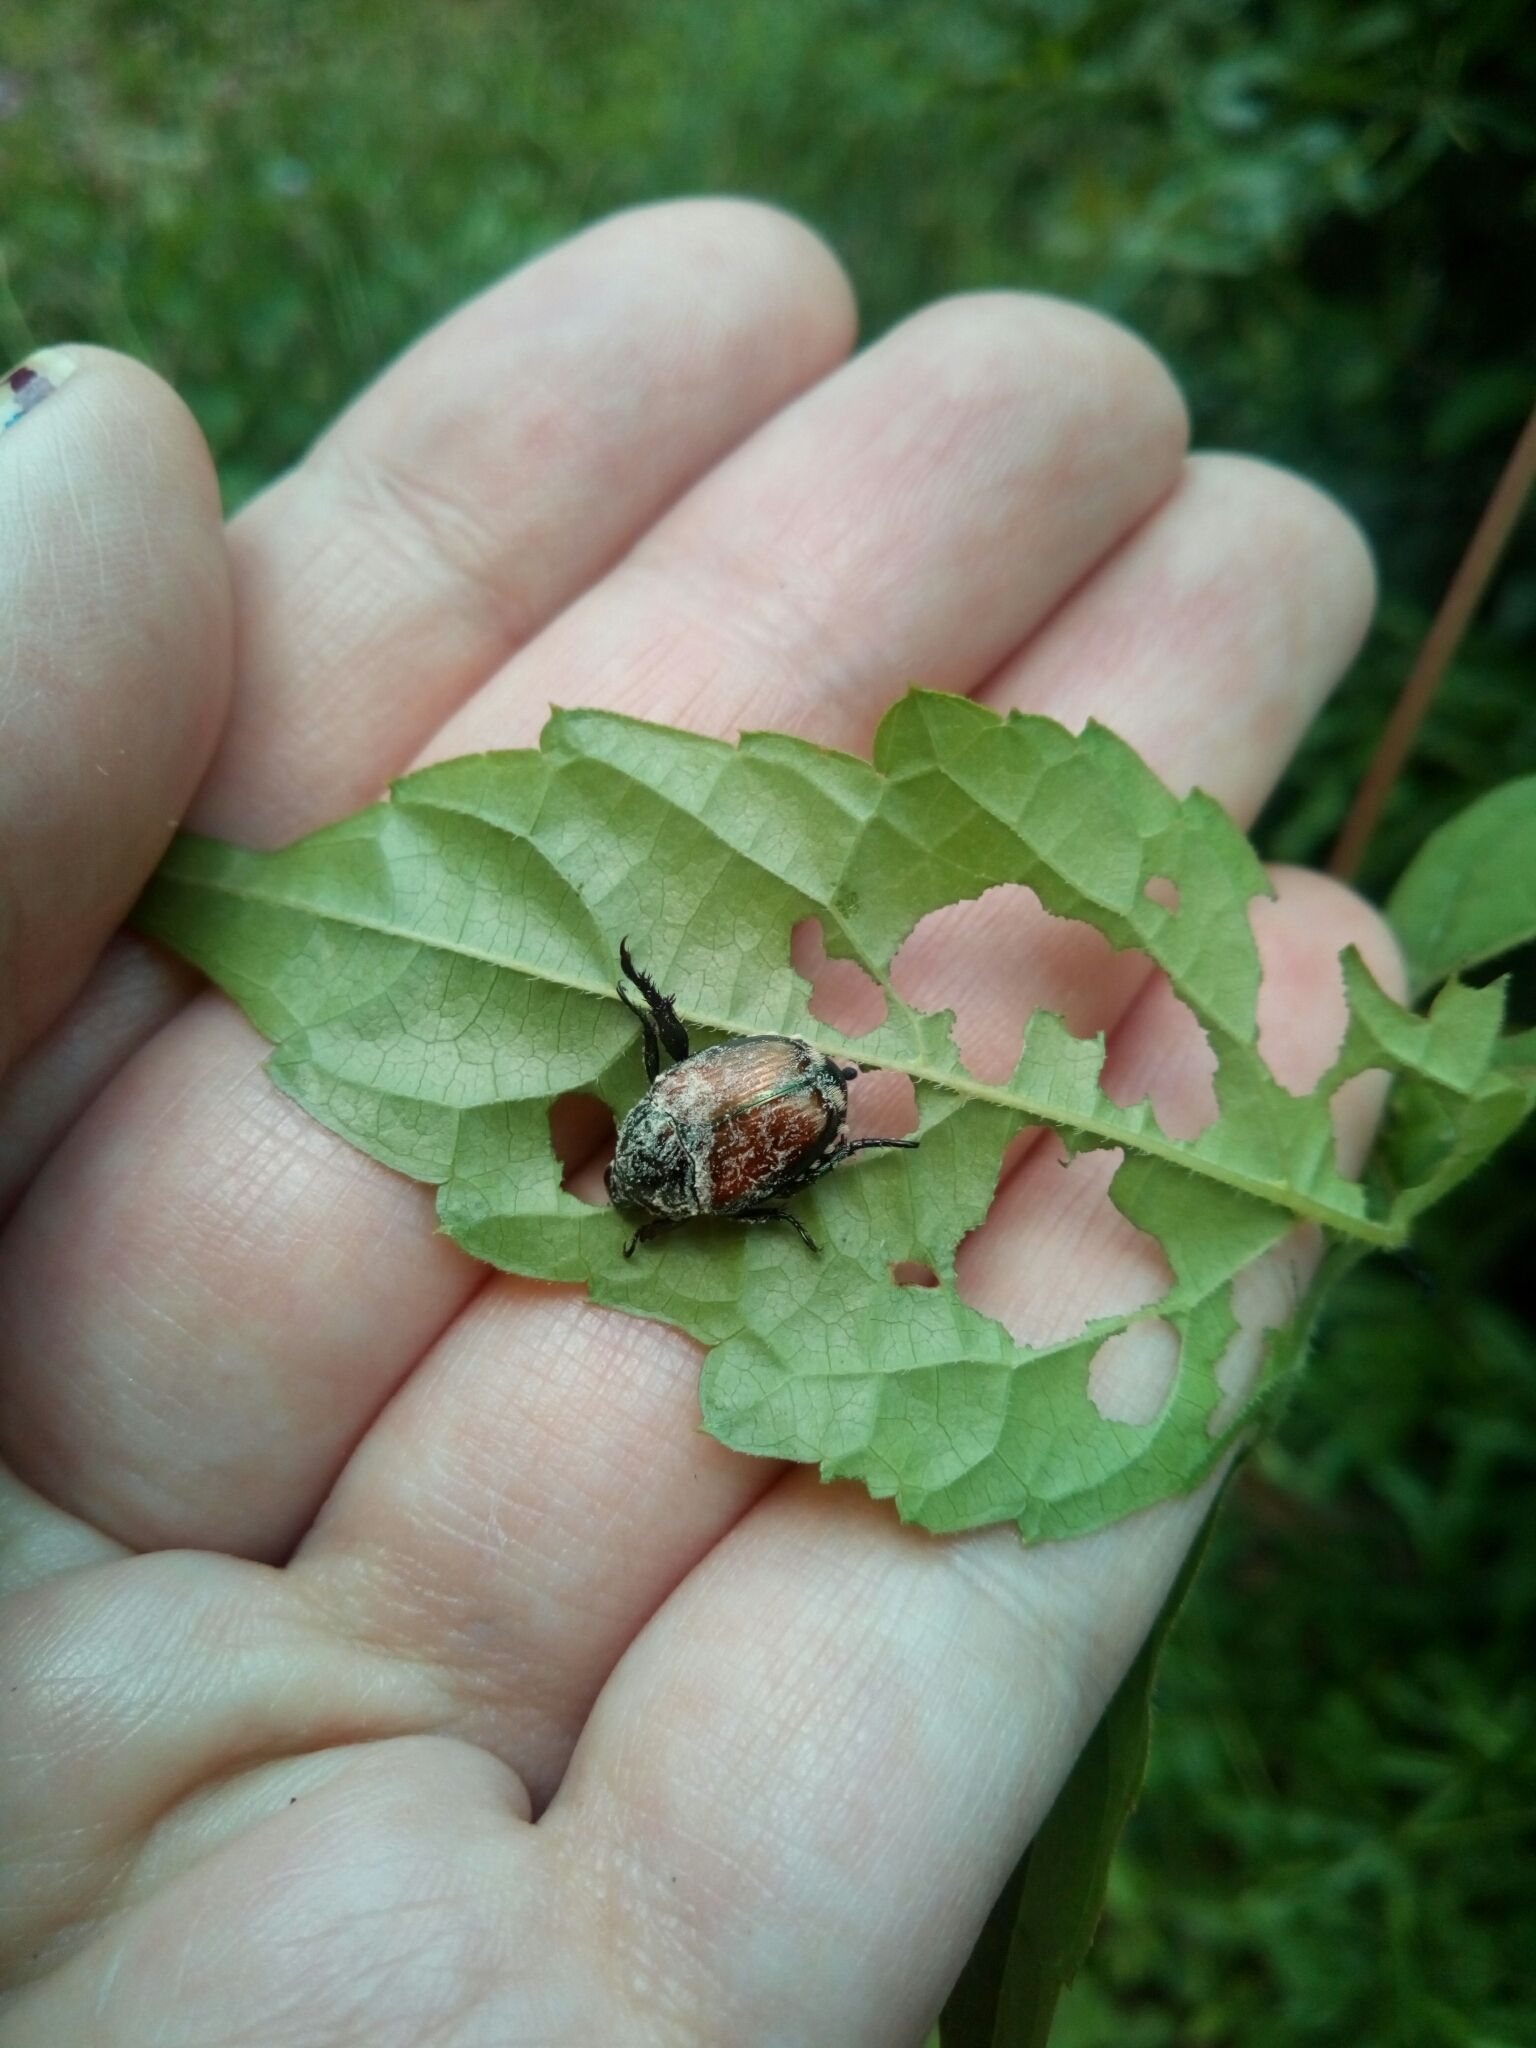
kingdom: Animalia
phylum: Arthropoda
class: Insecta
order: Coleoptera
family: Scarabaeidae
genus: Popillia
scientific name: Popillia japonica
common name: Japanese beetle
